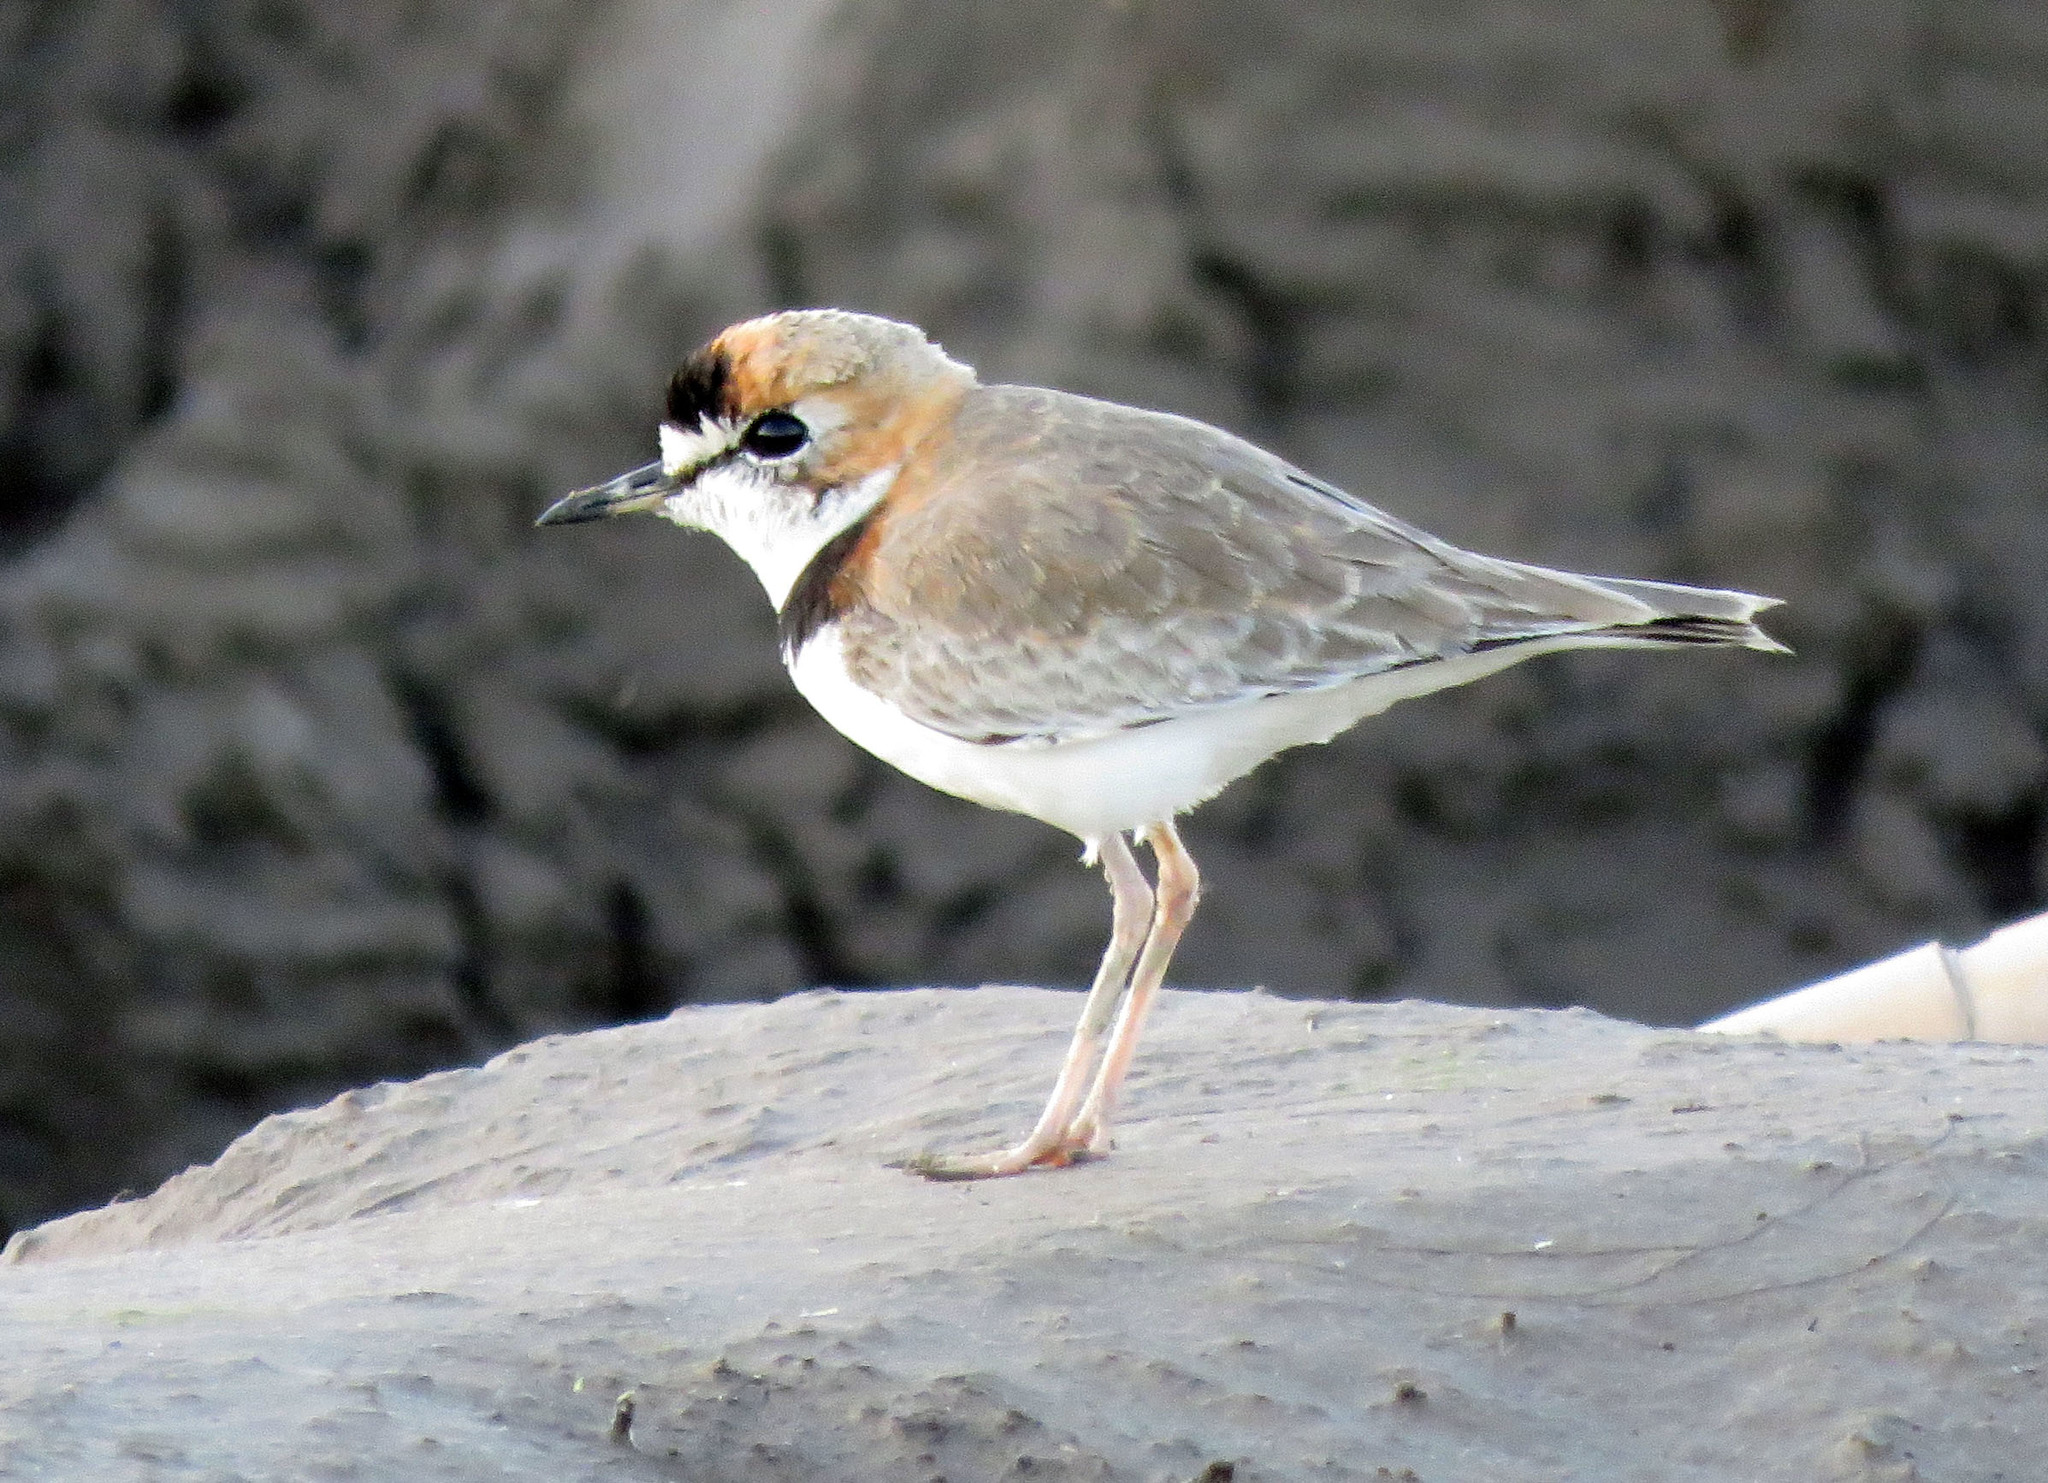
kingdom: Animalia
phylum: Chordata
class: Aves
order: Charadriiformes
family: Charadriidae
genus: Anarhynchus
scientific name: Anarhynchus
